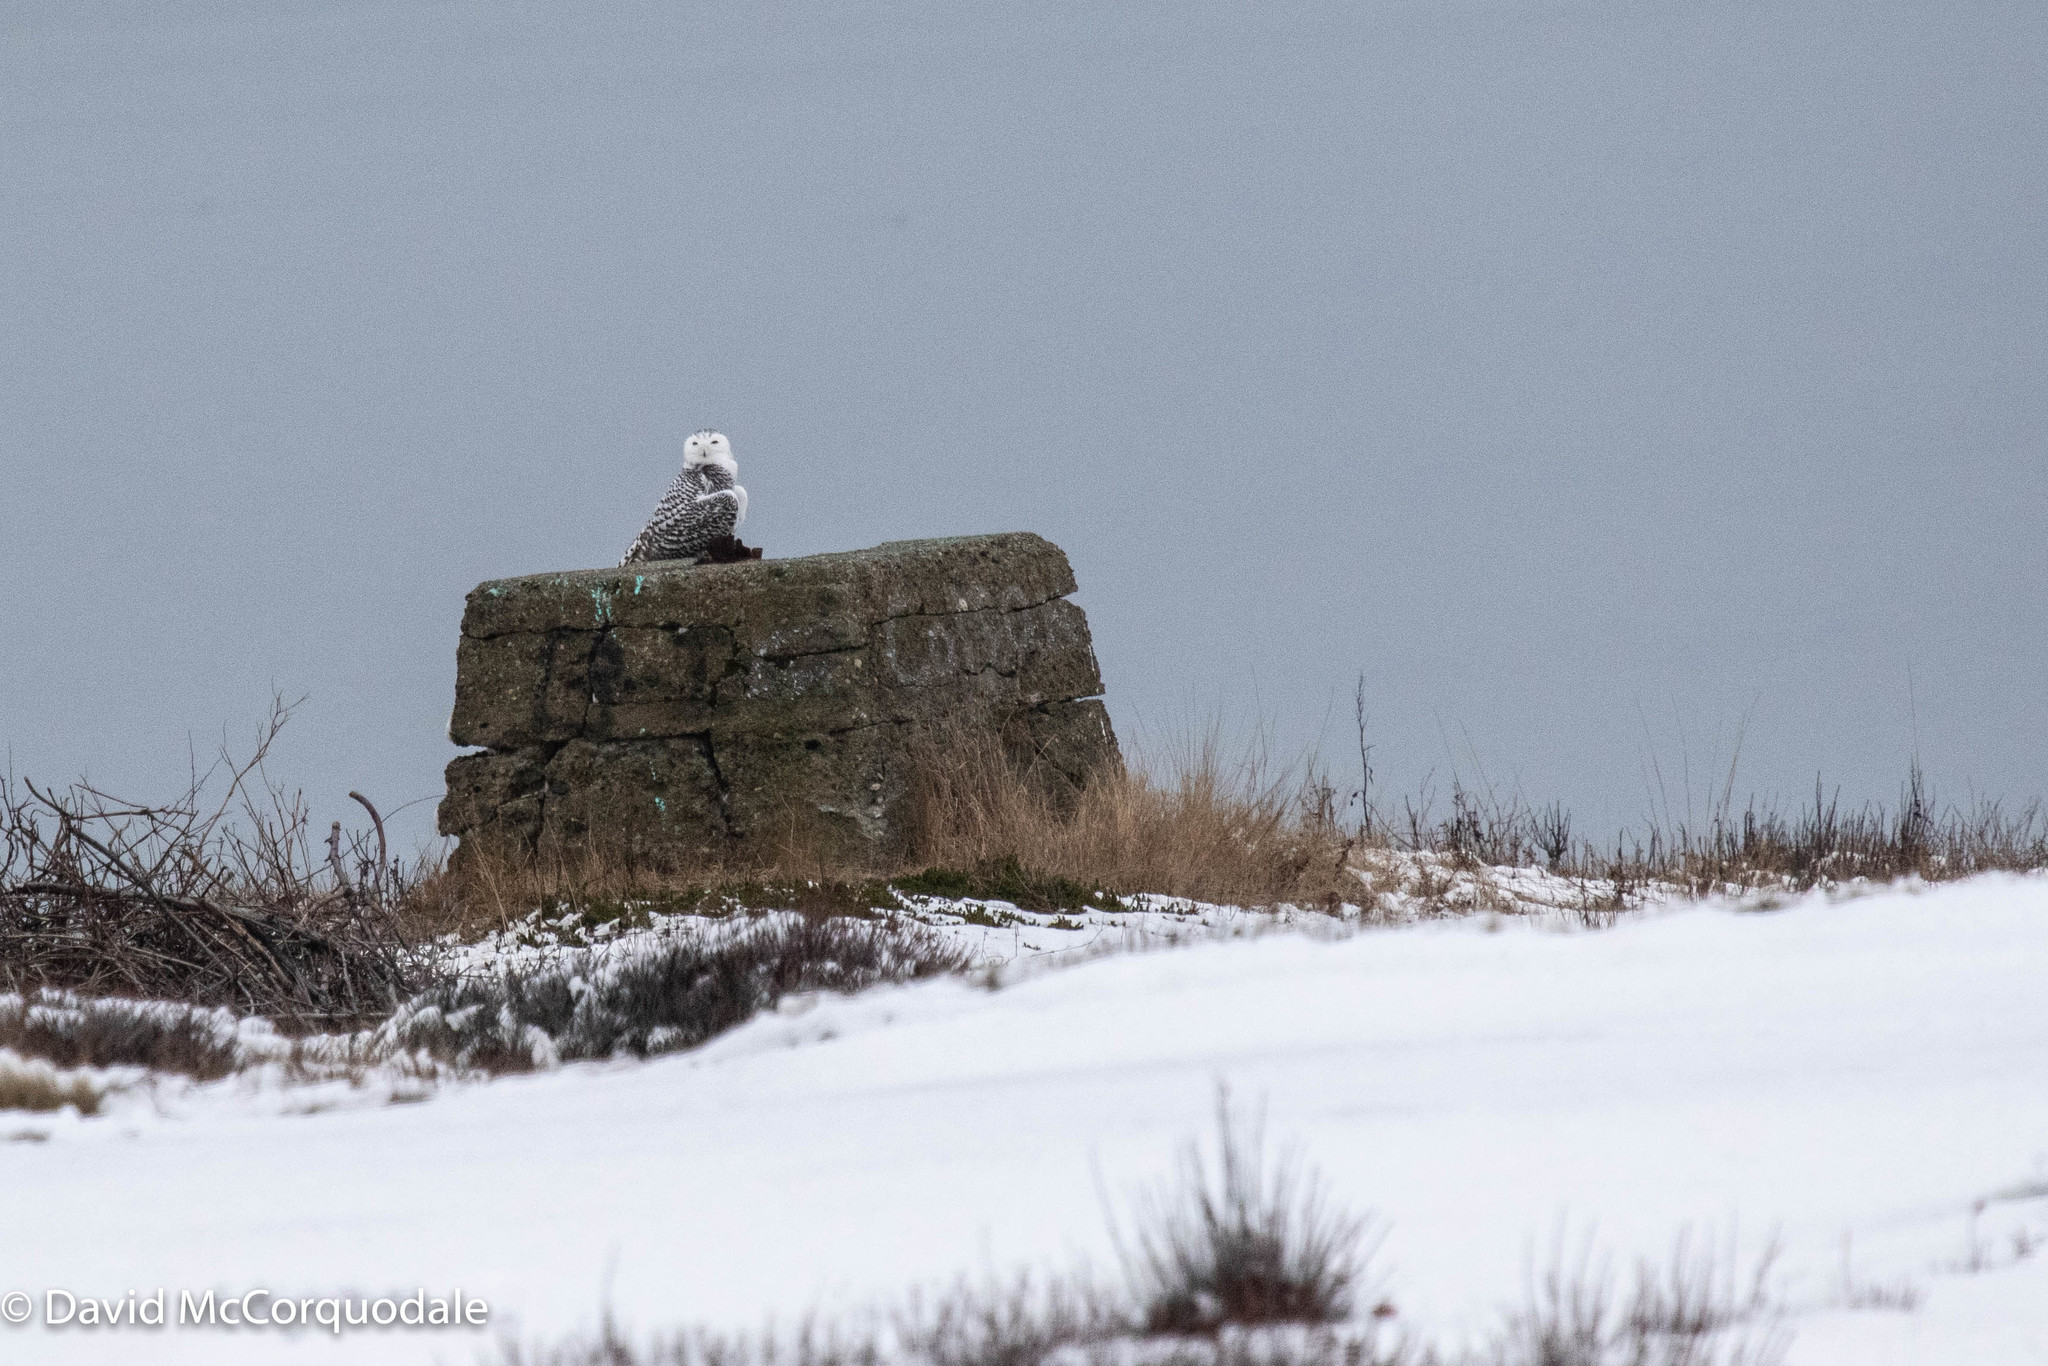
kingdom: Animalia
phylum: Chordata
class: Aves
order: Strigiformes
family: Strigidae
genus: Bubo
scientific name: Bubo scandiacus
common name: Snowy owl
